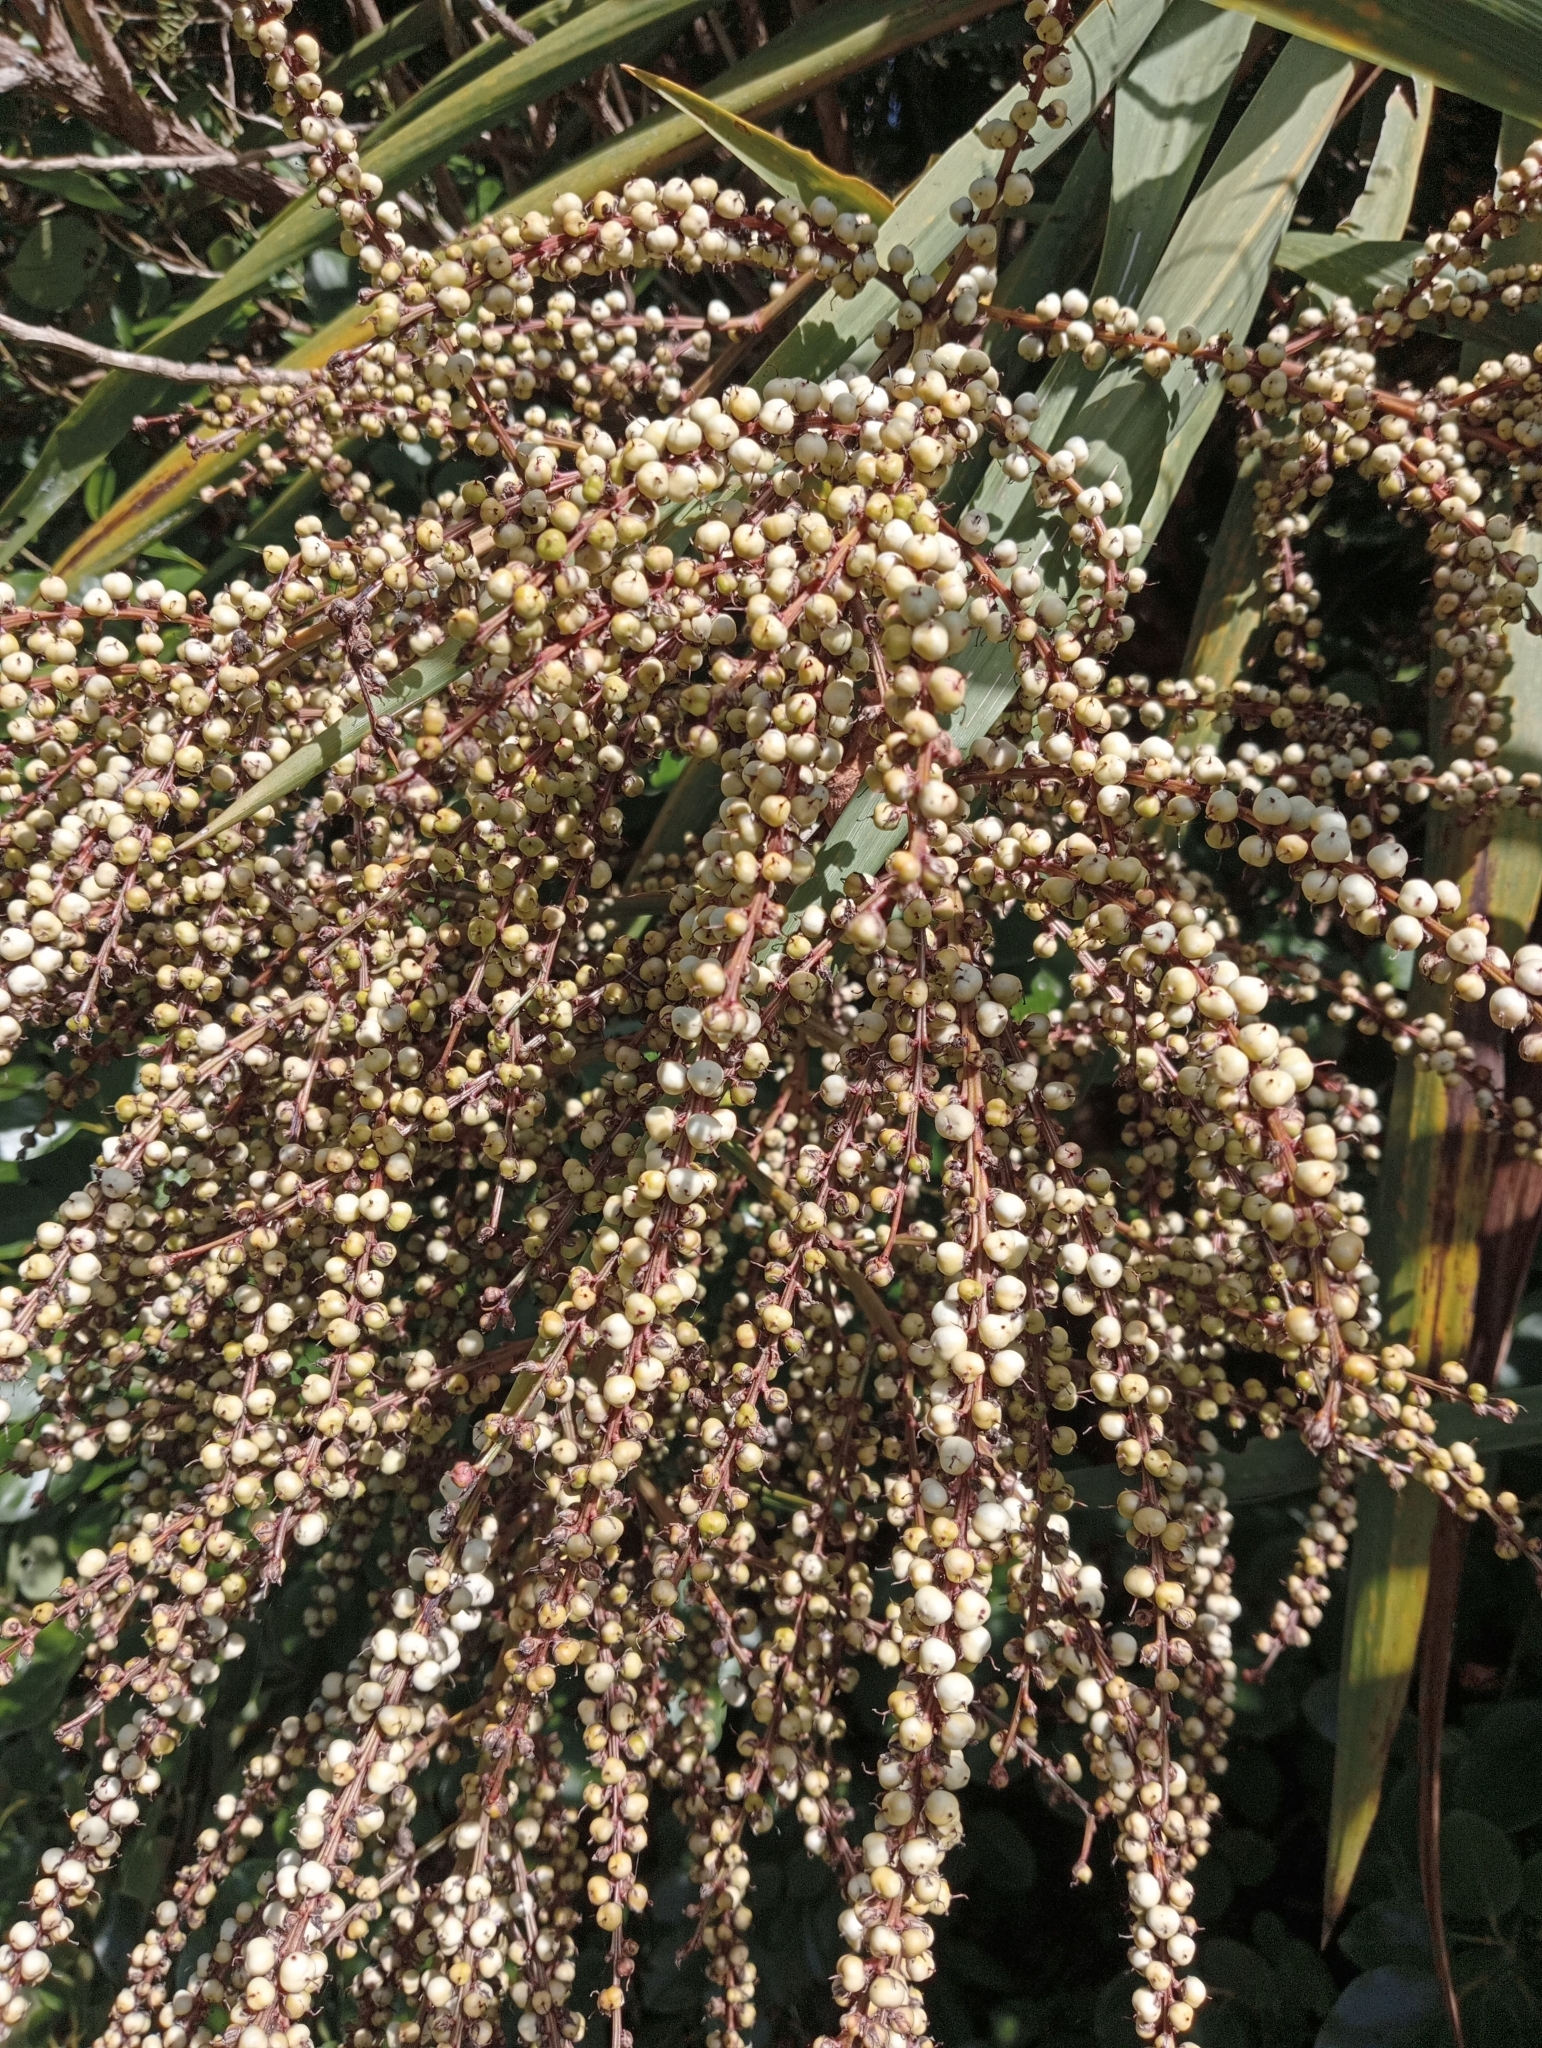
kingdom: Plantae
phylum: Tracheophyta
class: Liliopsida
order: Asparagales
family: Asparagaceae
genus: Cordyline
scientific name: Cordyline australis
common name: Cabbage-palm
